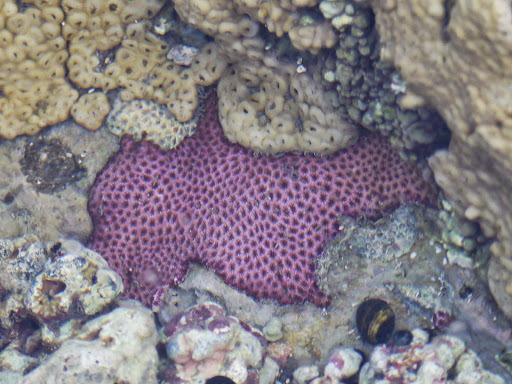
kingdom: Animalia
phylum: Cnidaria
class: Anthozoa
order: Scleractinia
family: Rhizangiidae
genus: Siderastrea
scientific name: Siderastrea radians
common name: Lesser starlet coral
